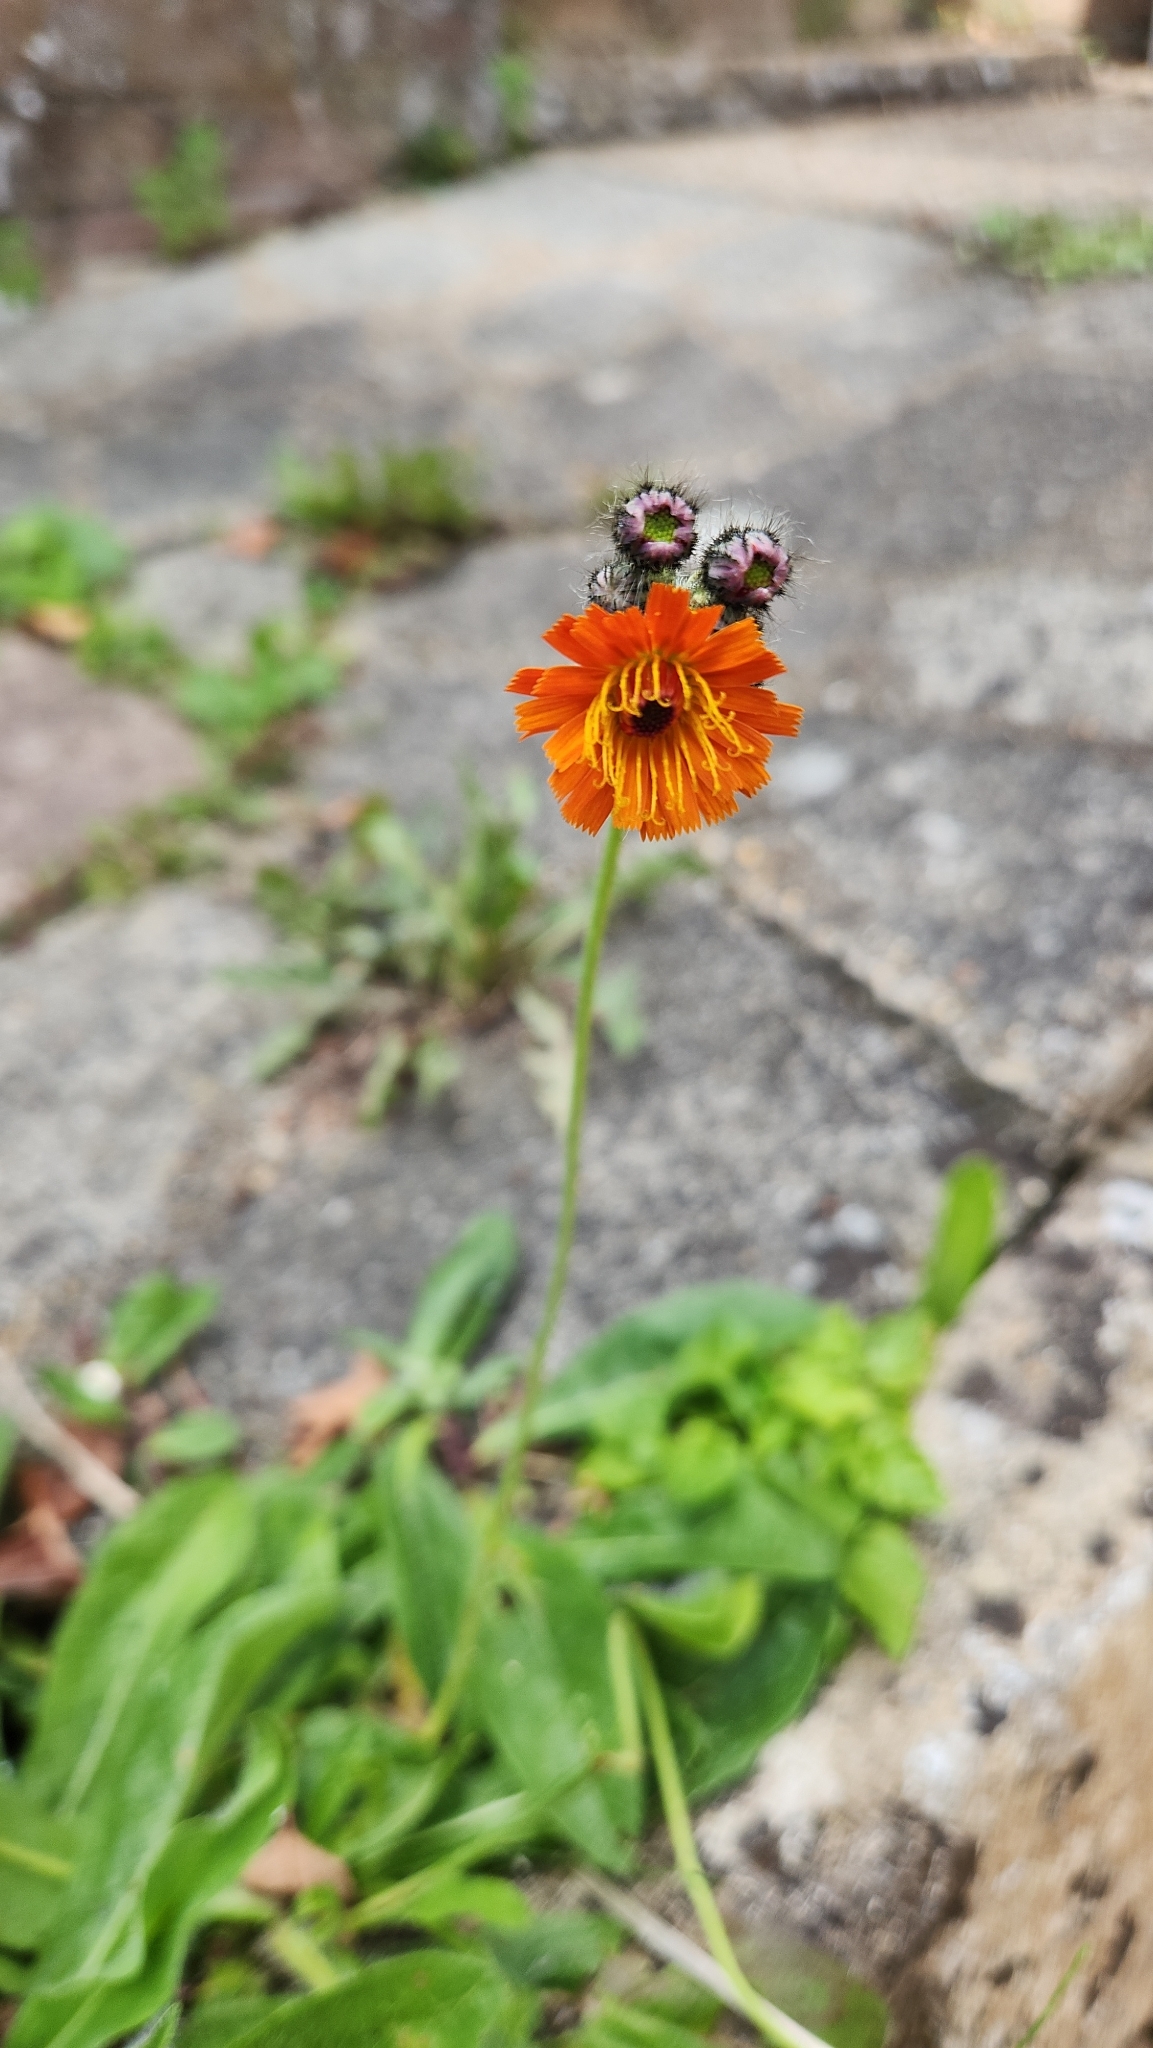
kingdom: Plantae
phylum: Tracheophyta
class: Magnoliopsida
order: Asterales
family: Asteraceae
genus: Pilosella
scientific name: Pilosella aurantiaca
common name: Fox-and-cubs
